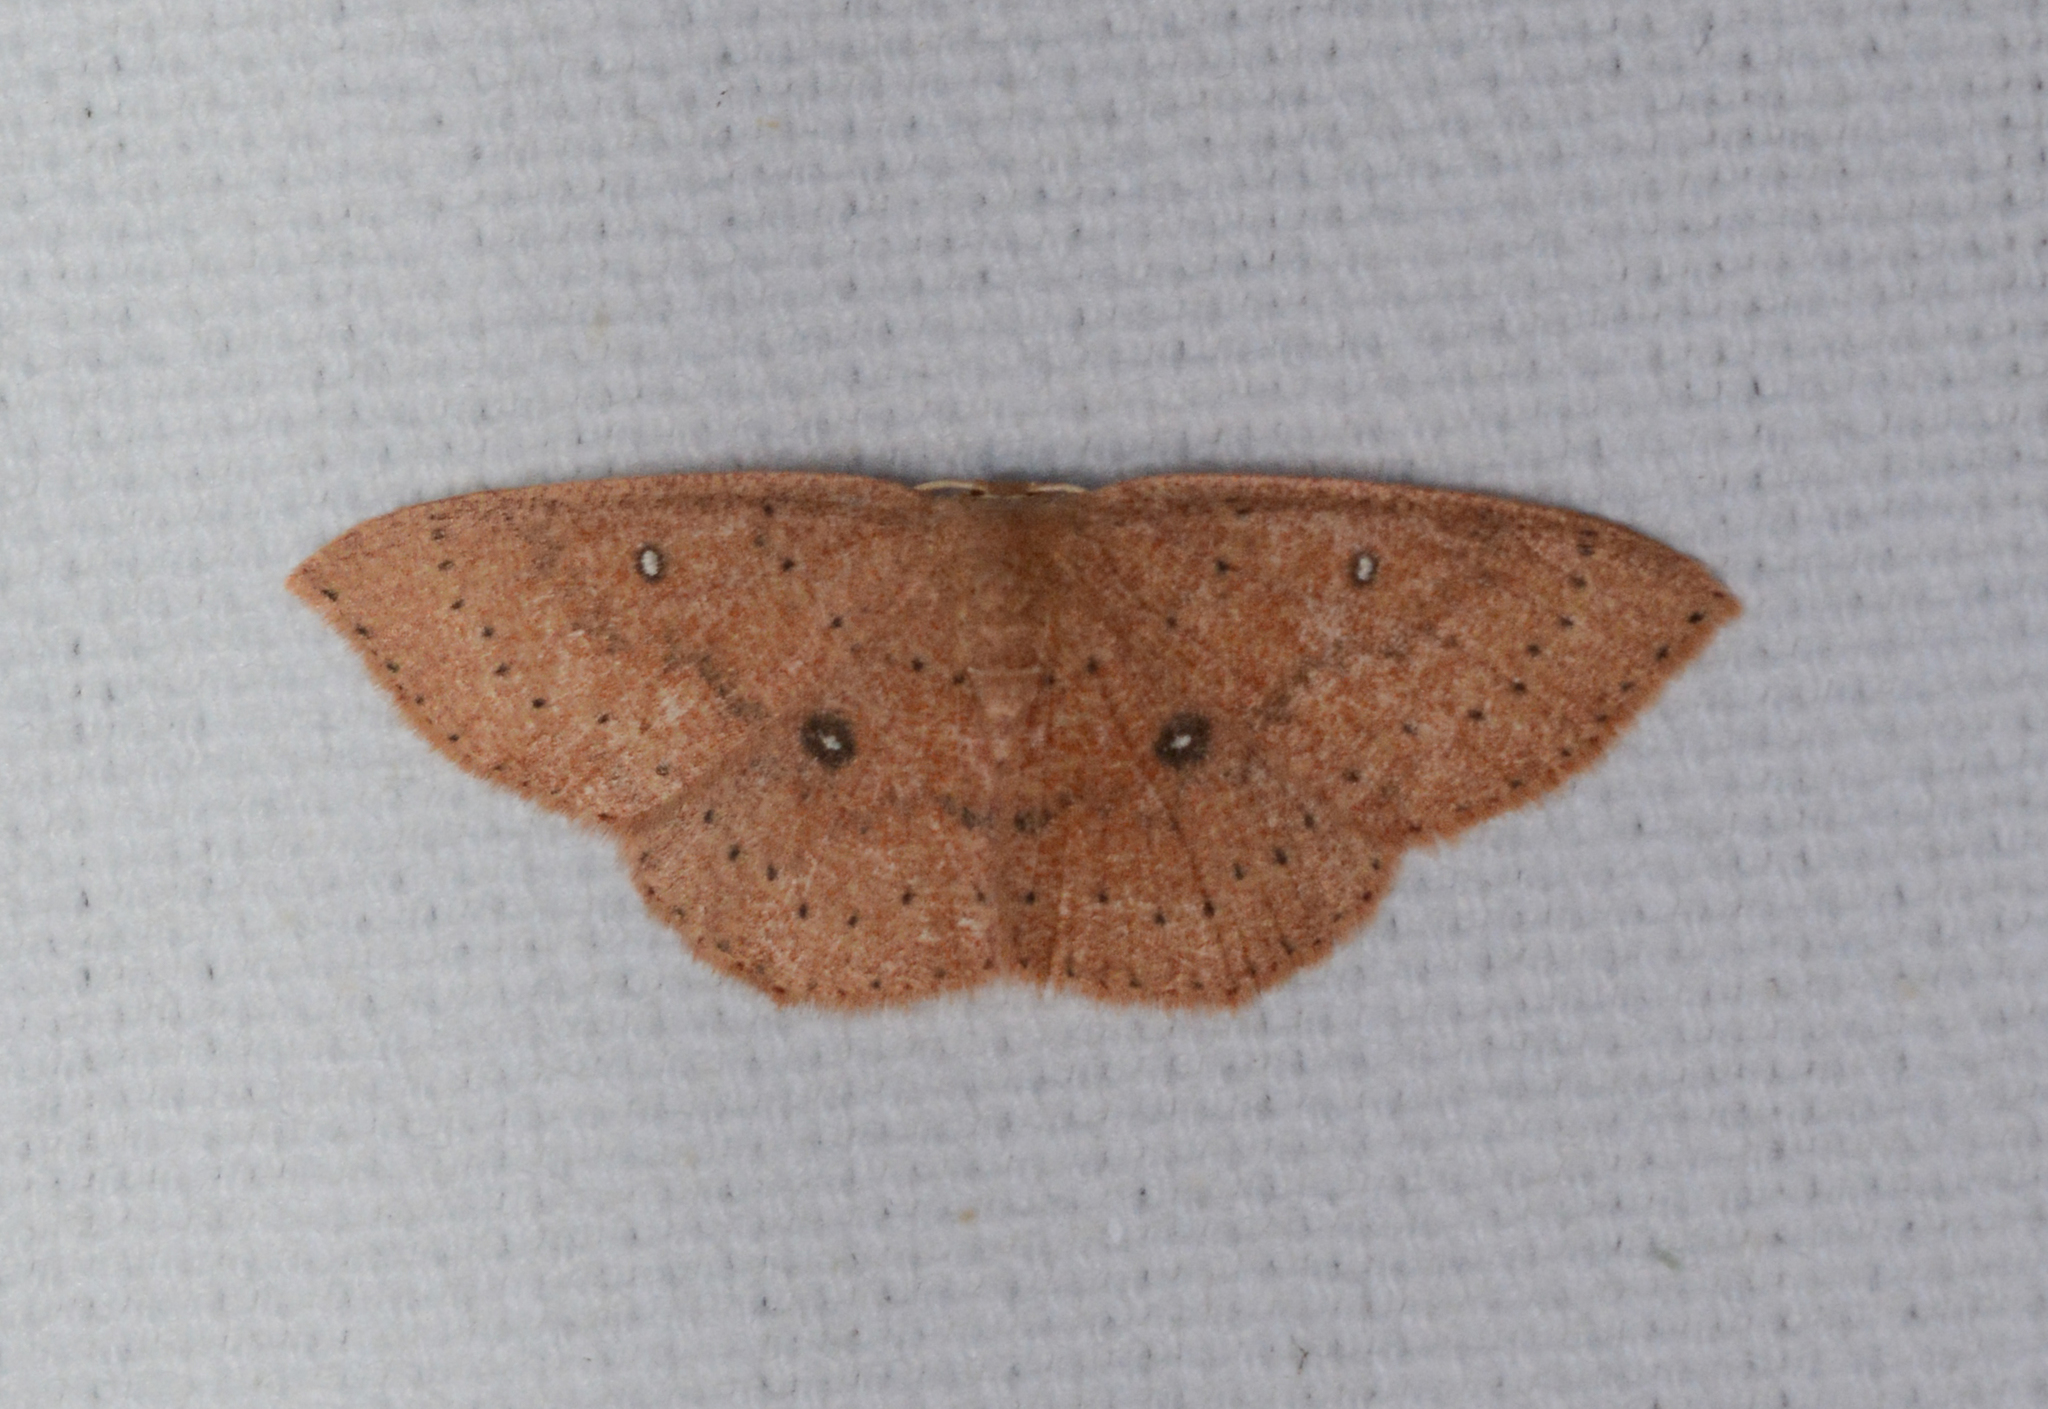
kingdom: Animalia
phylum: Arthropoda
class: Insecta
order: Lepidoptera
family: Geometridae
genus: Cyclophora
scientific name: Cyclophora packardi
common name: Packard's wave
